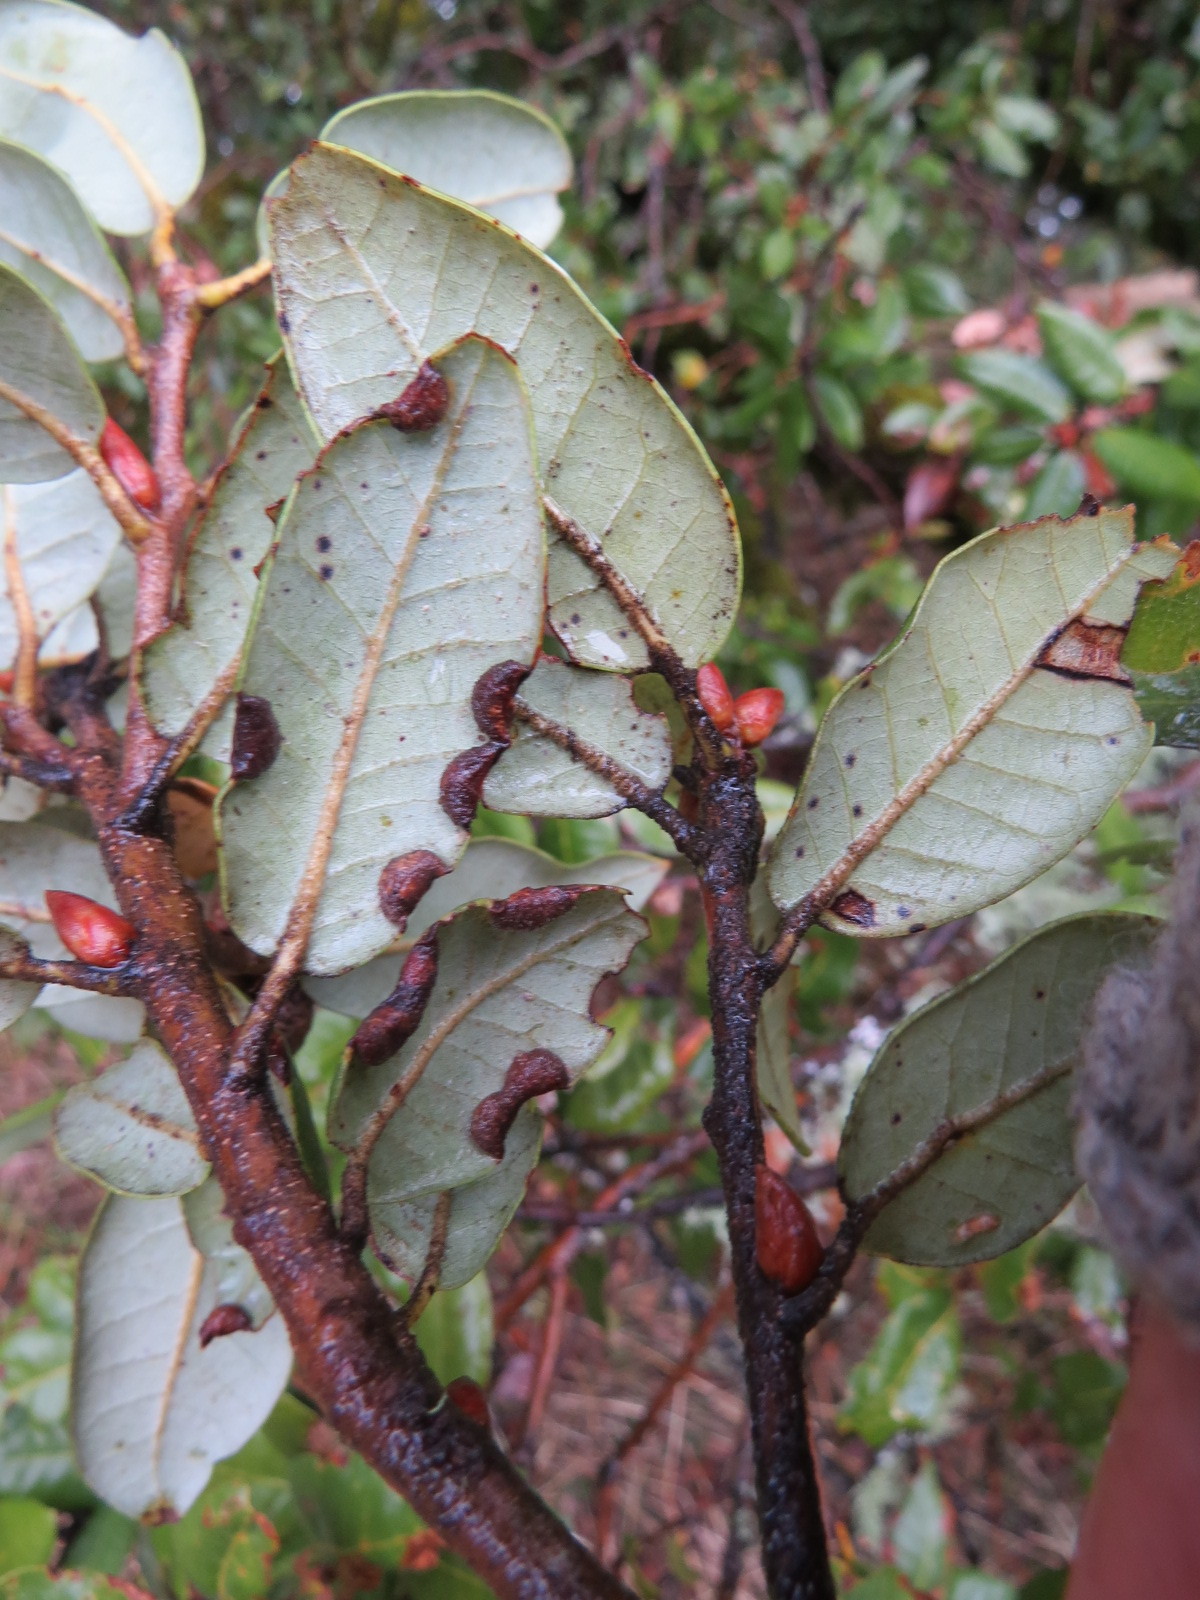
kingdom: Animalia
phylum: Arthropoda
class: Insecta
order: Diptera
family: Cecidomyiidae
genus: Dasineura
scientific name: Dasineura silvestrii
